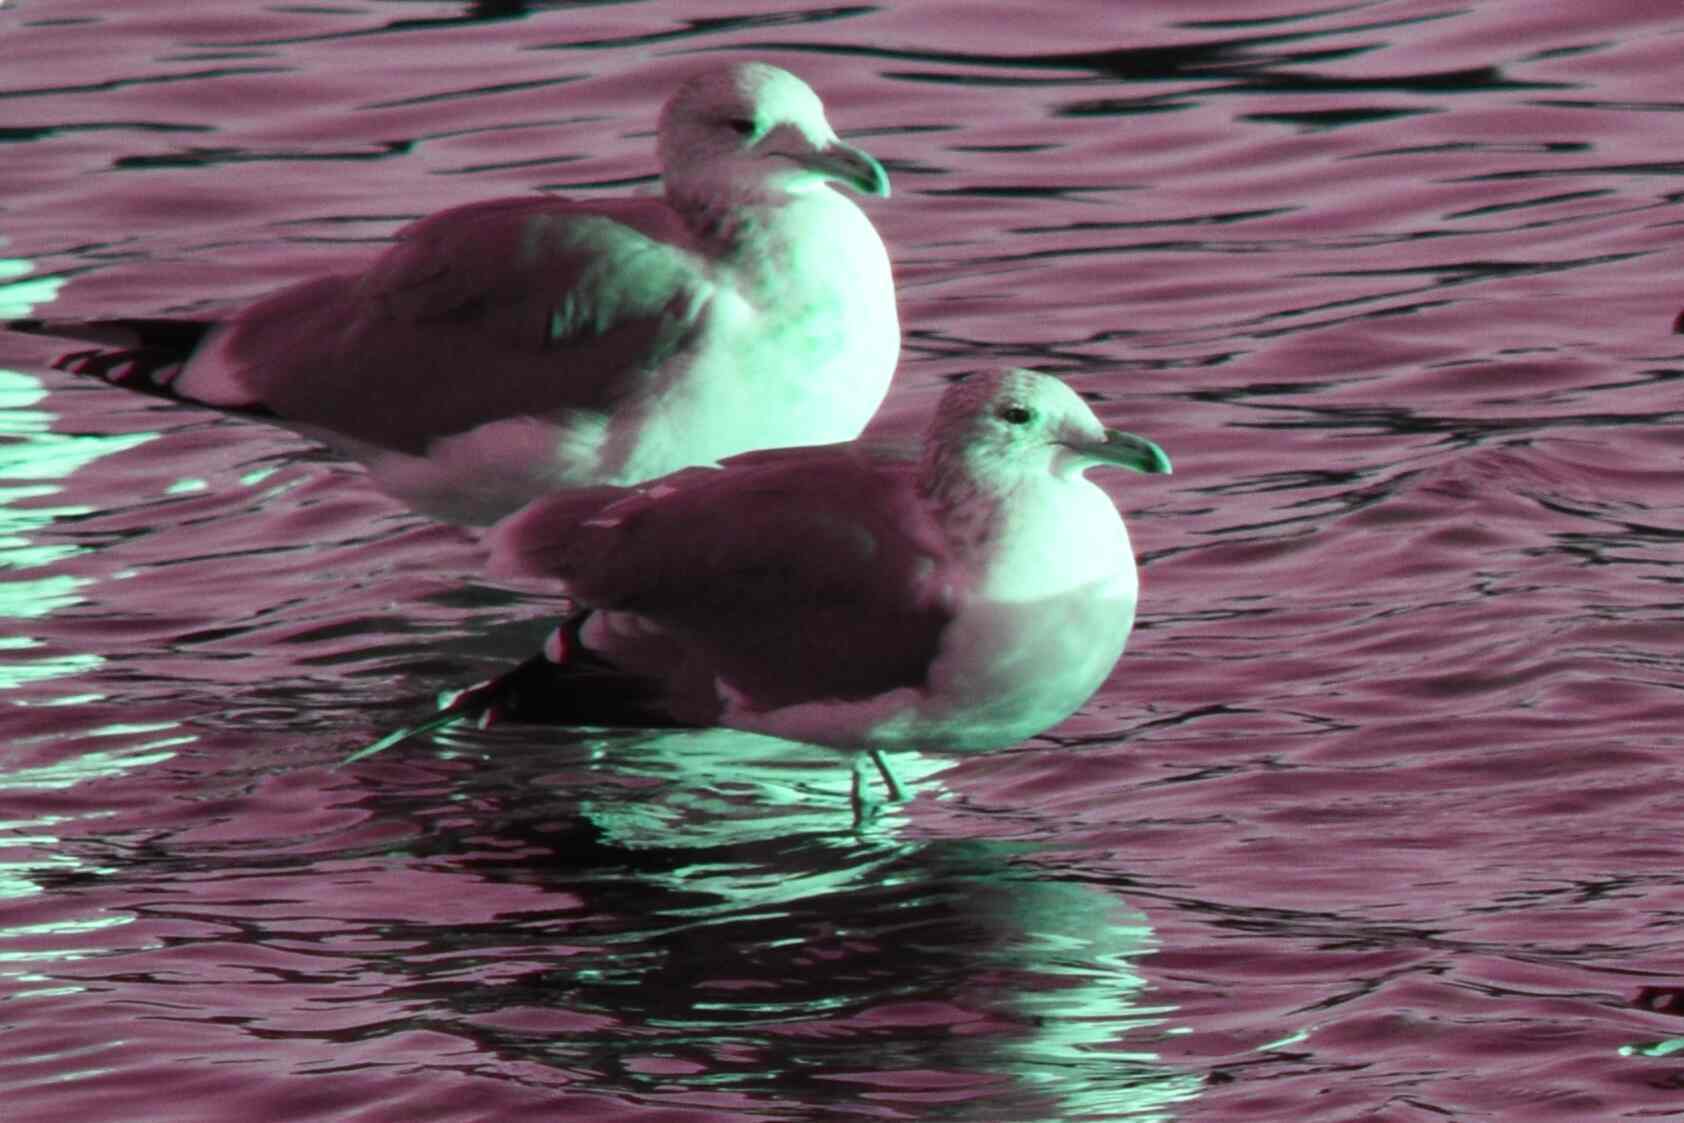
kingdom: Animalia
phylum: Chordata
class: Aves
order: Charadriiformes
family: Laridae
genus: Larus
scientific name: Larus californicus
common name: California gull
